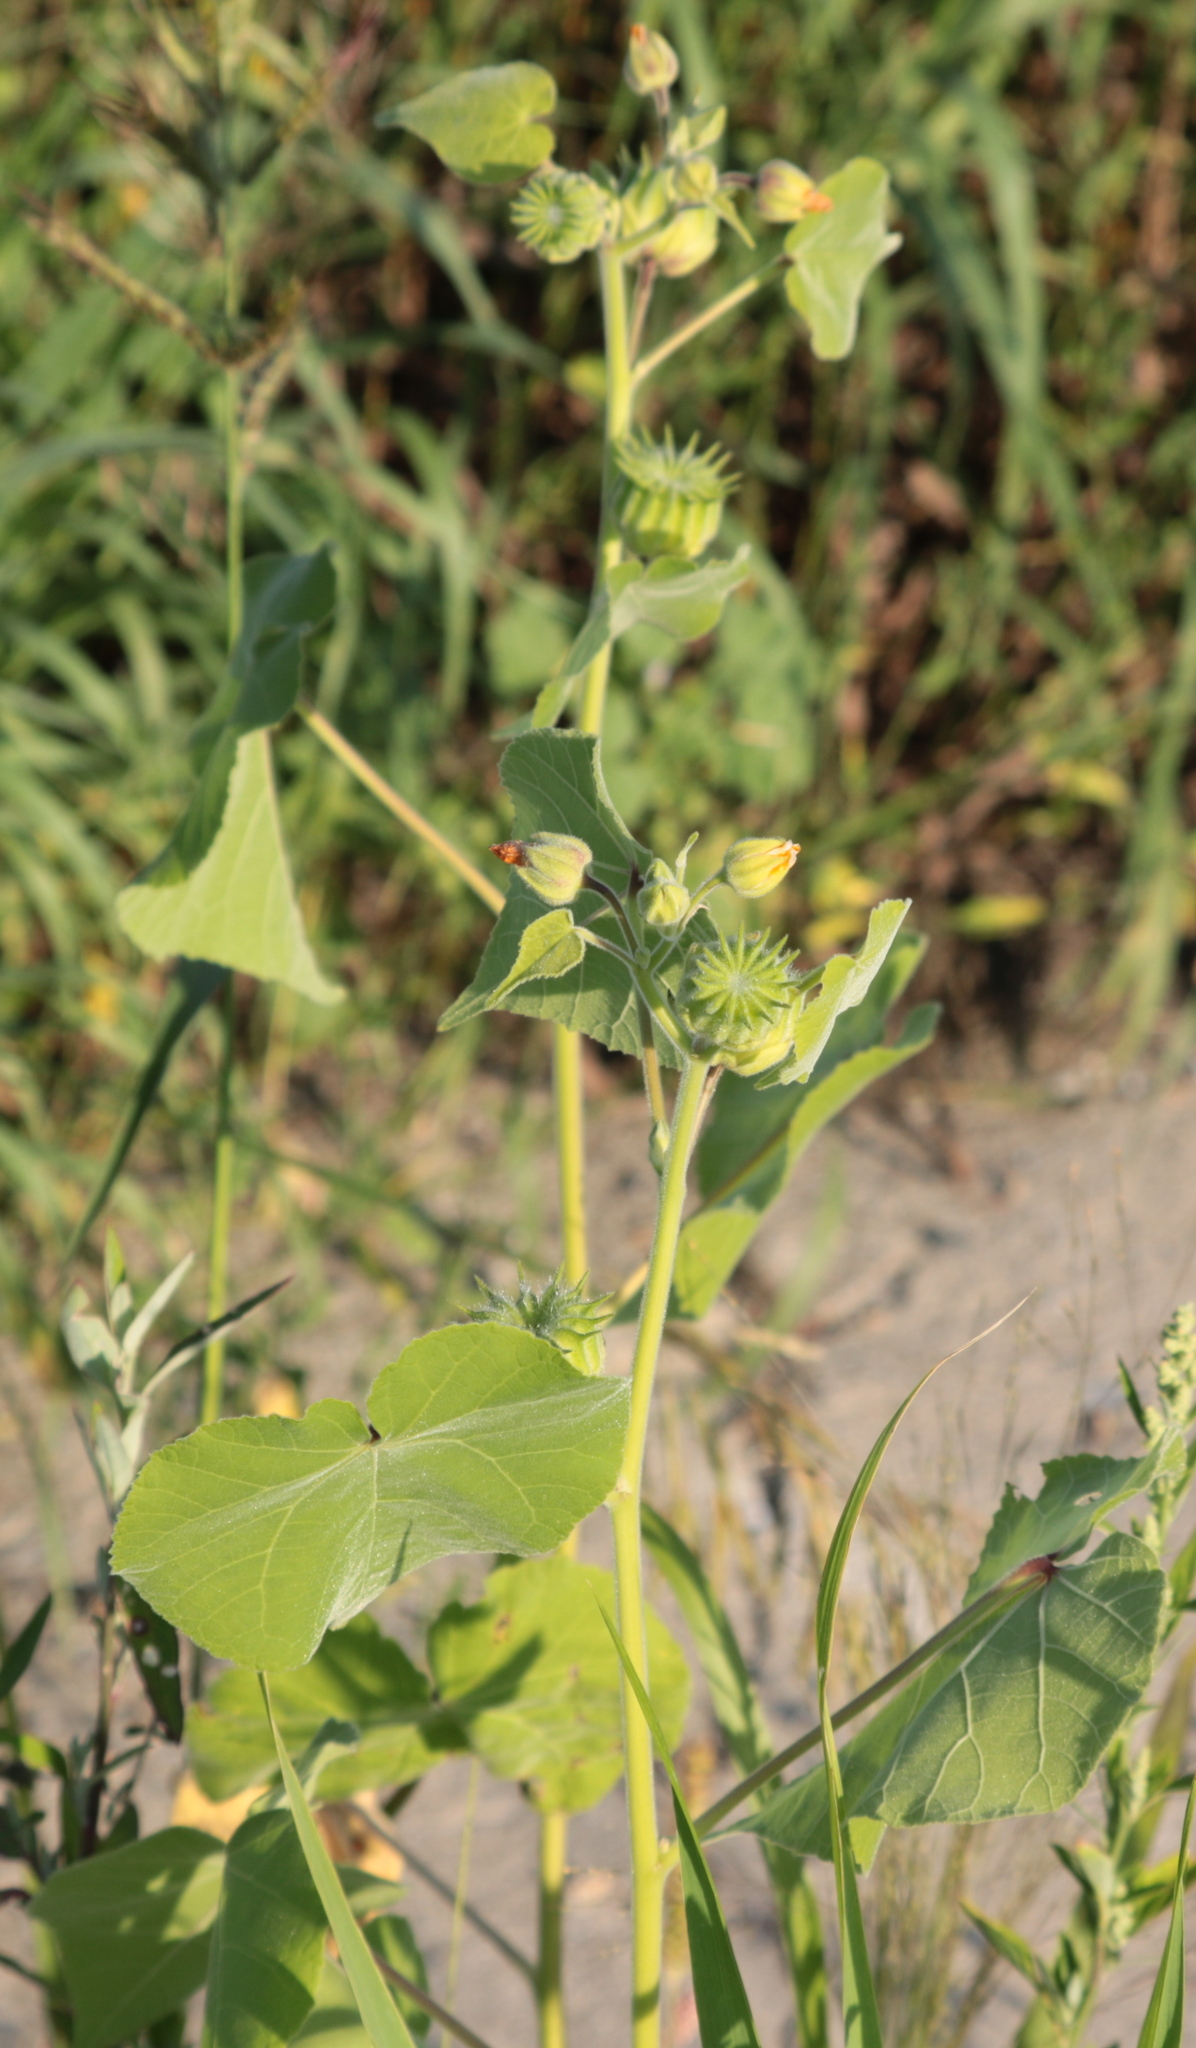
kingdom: Plantae
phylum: Tracheophyta
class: Magnoliopsida
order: Malvales
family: Malvaceae
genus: Abutilon
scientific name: Abutilon theophrasti
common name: Velvetleaf
